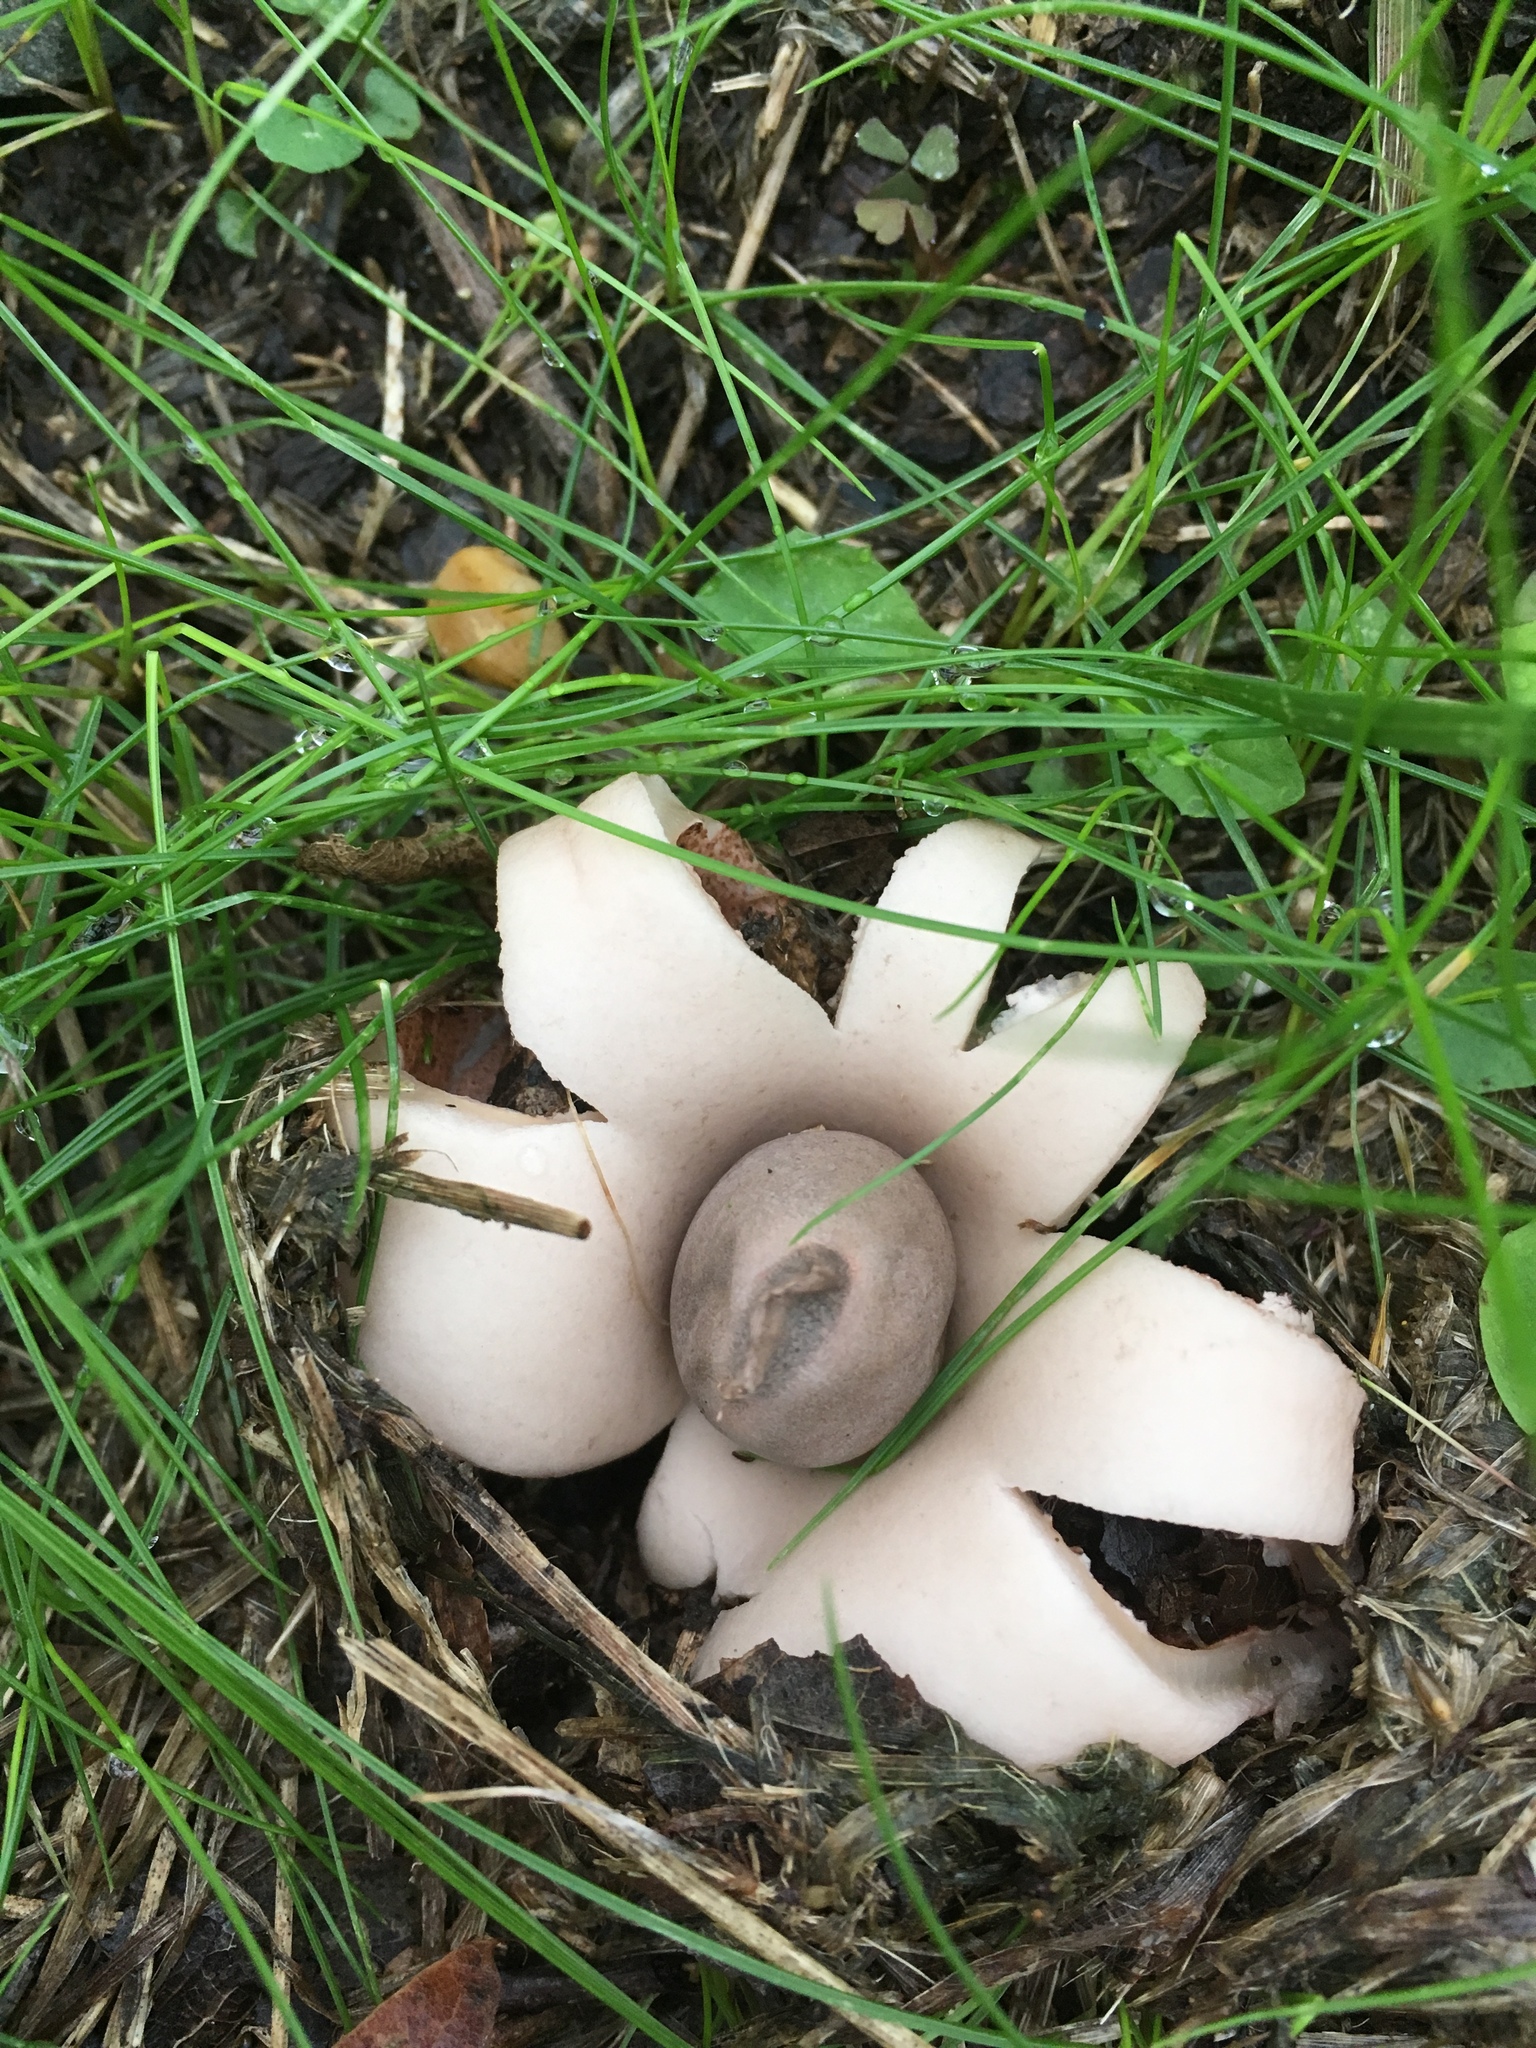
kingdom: Fungi
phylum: Basidiomycota
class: Agaricomycetes
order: Geastrales
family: Geastraceae
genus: Geastrum
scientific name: Geastrum saccatum
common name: Rounded earthstar
